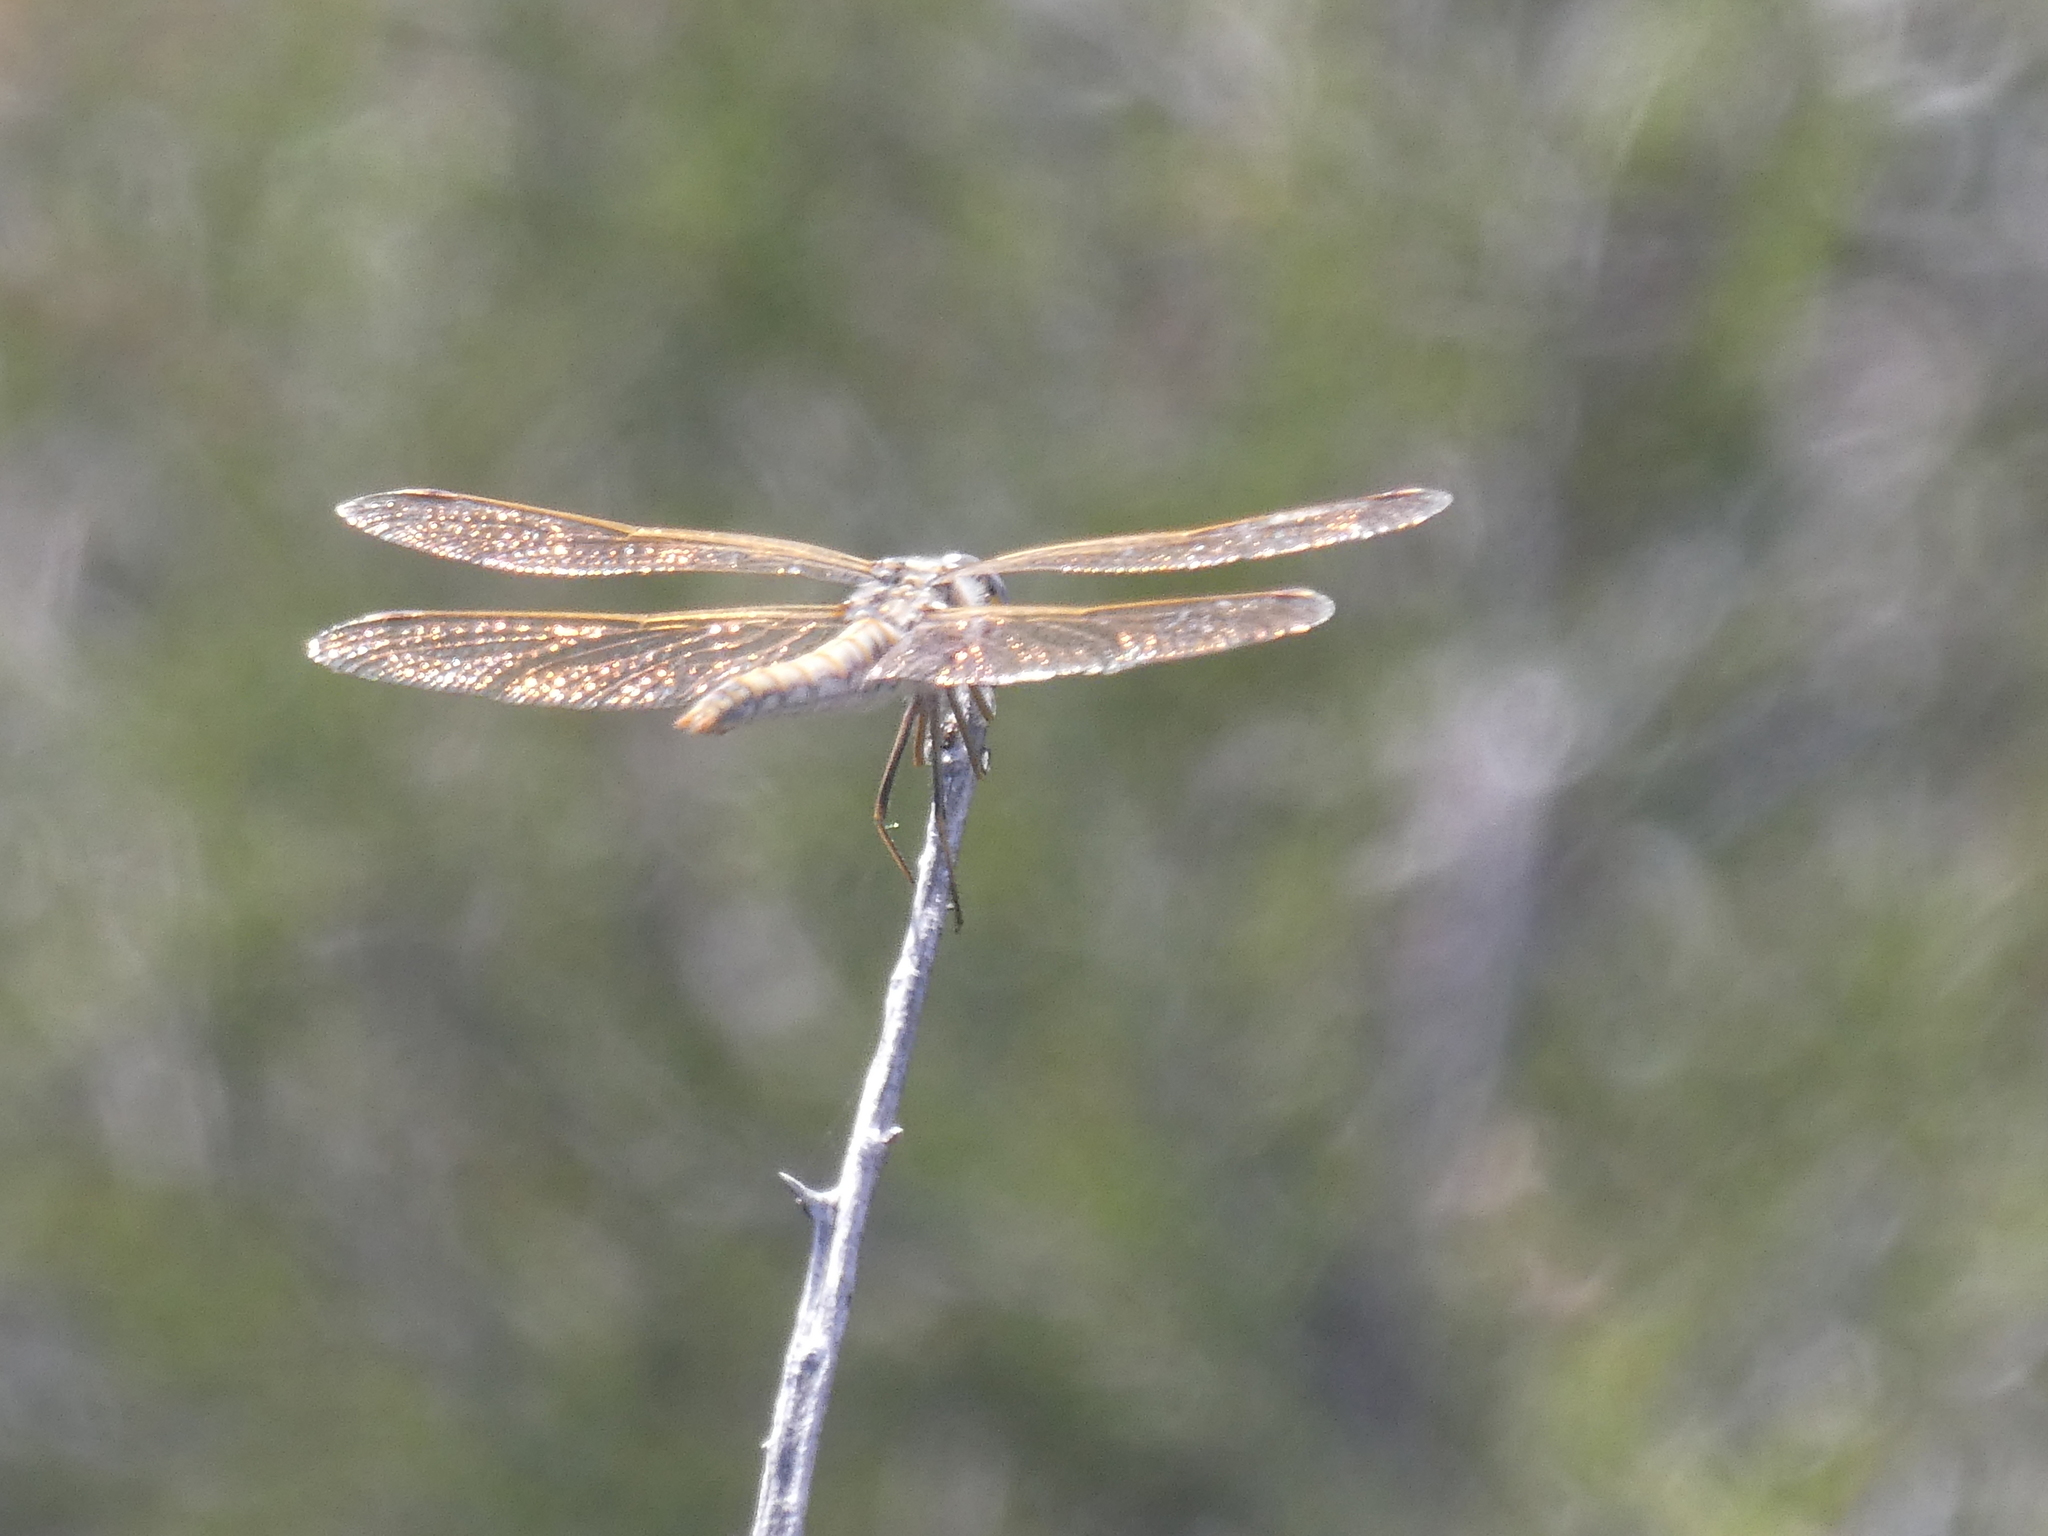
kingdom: Animalia
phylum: Arthropoda
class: Insecta
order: Odonata
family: Libellulidae
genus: Sympetrum
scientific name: Sympetrum corruptum
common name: Variegated meadowhawk
